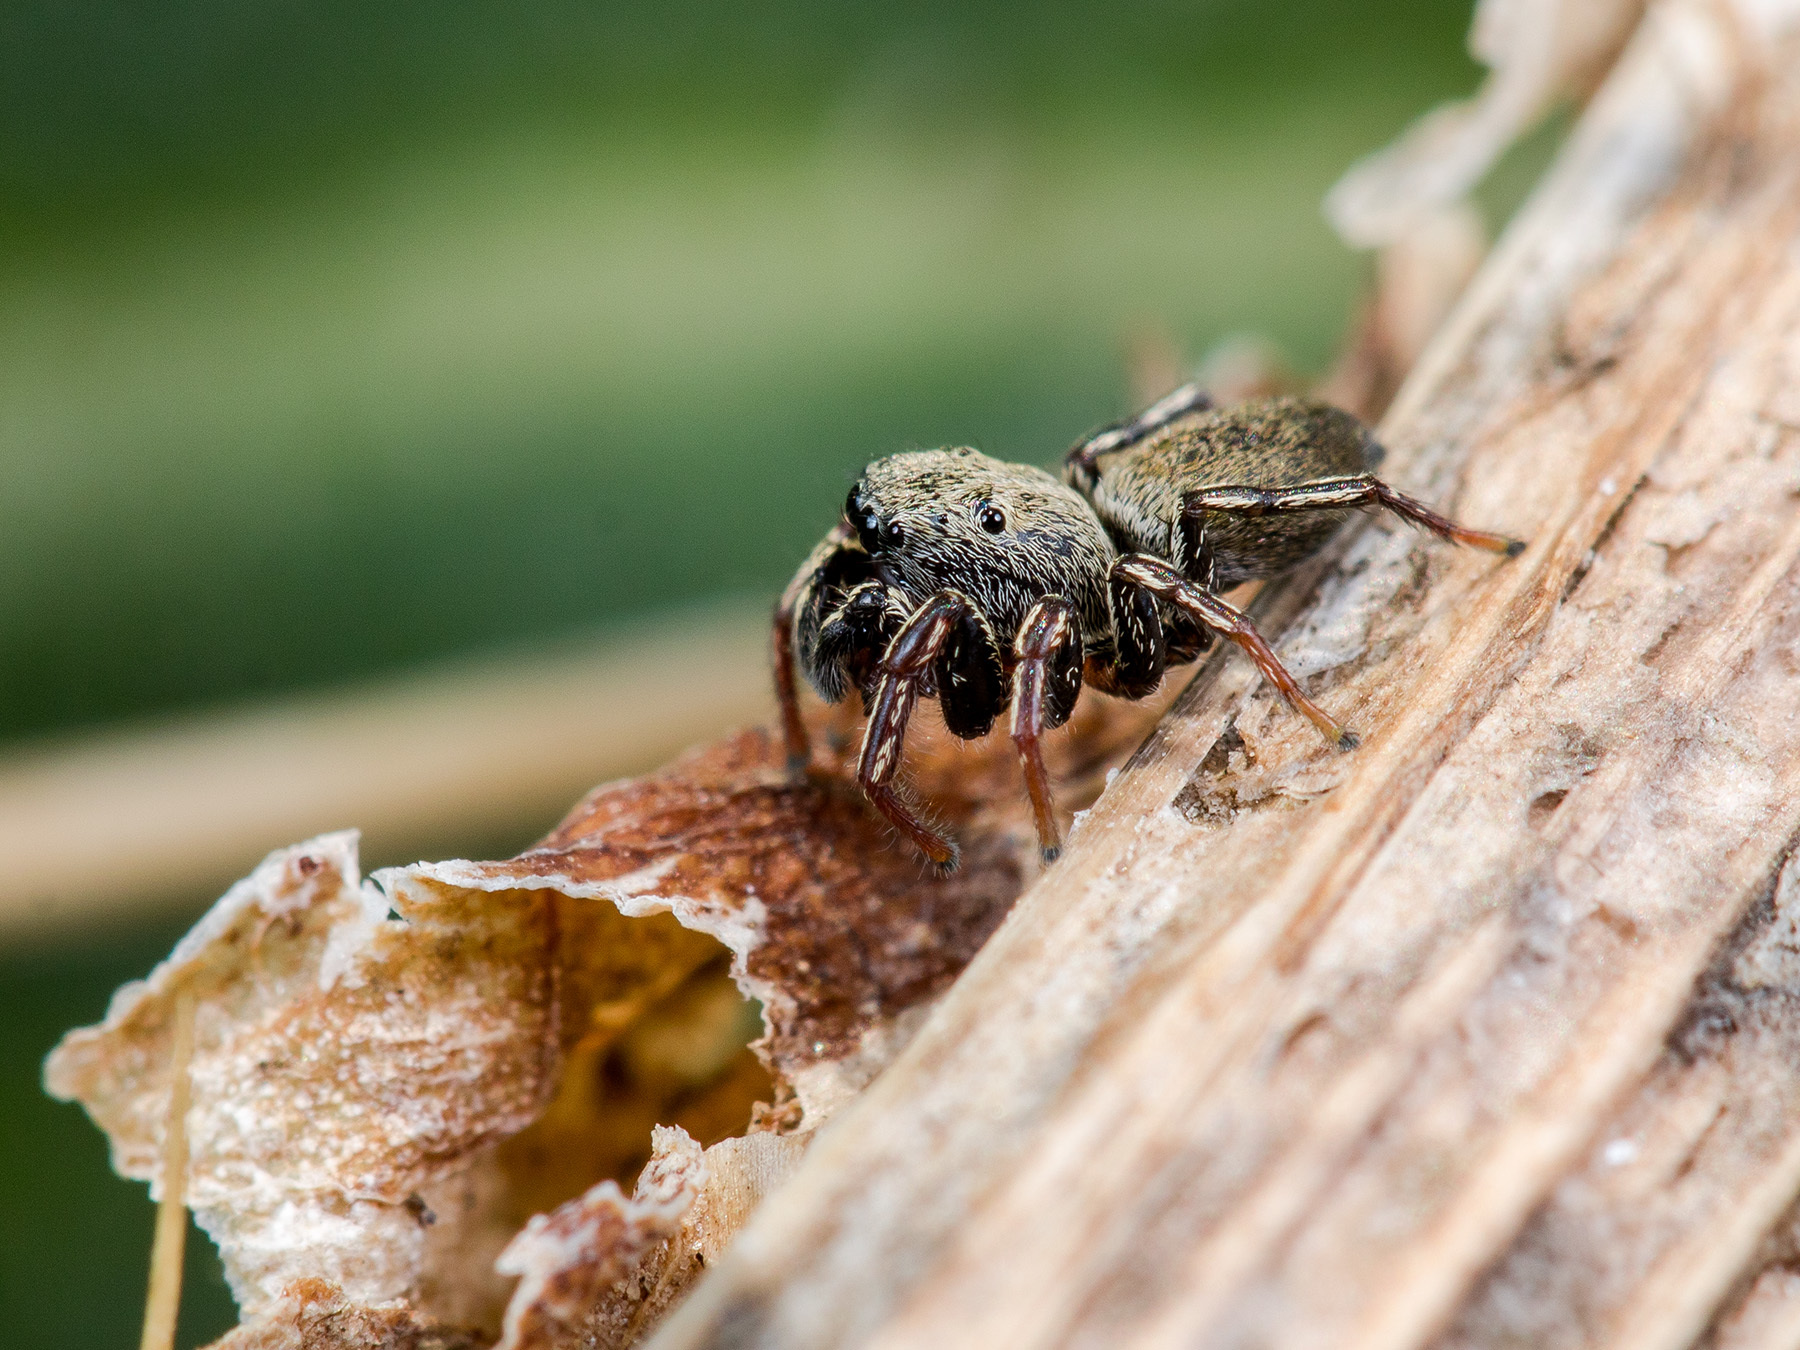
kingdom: Animalia
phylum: Arthropoda
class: Arachnida
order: Araneae
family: Salticidae
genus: Heliophanus
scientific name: Heliophanus forcipifer
